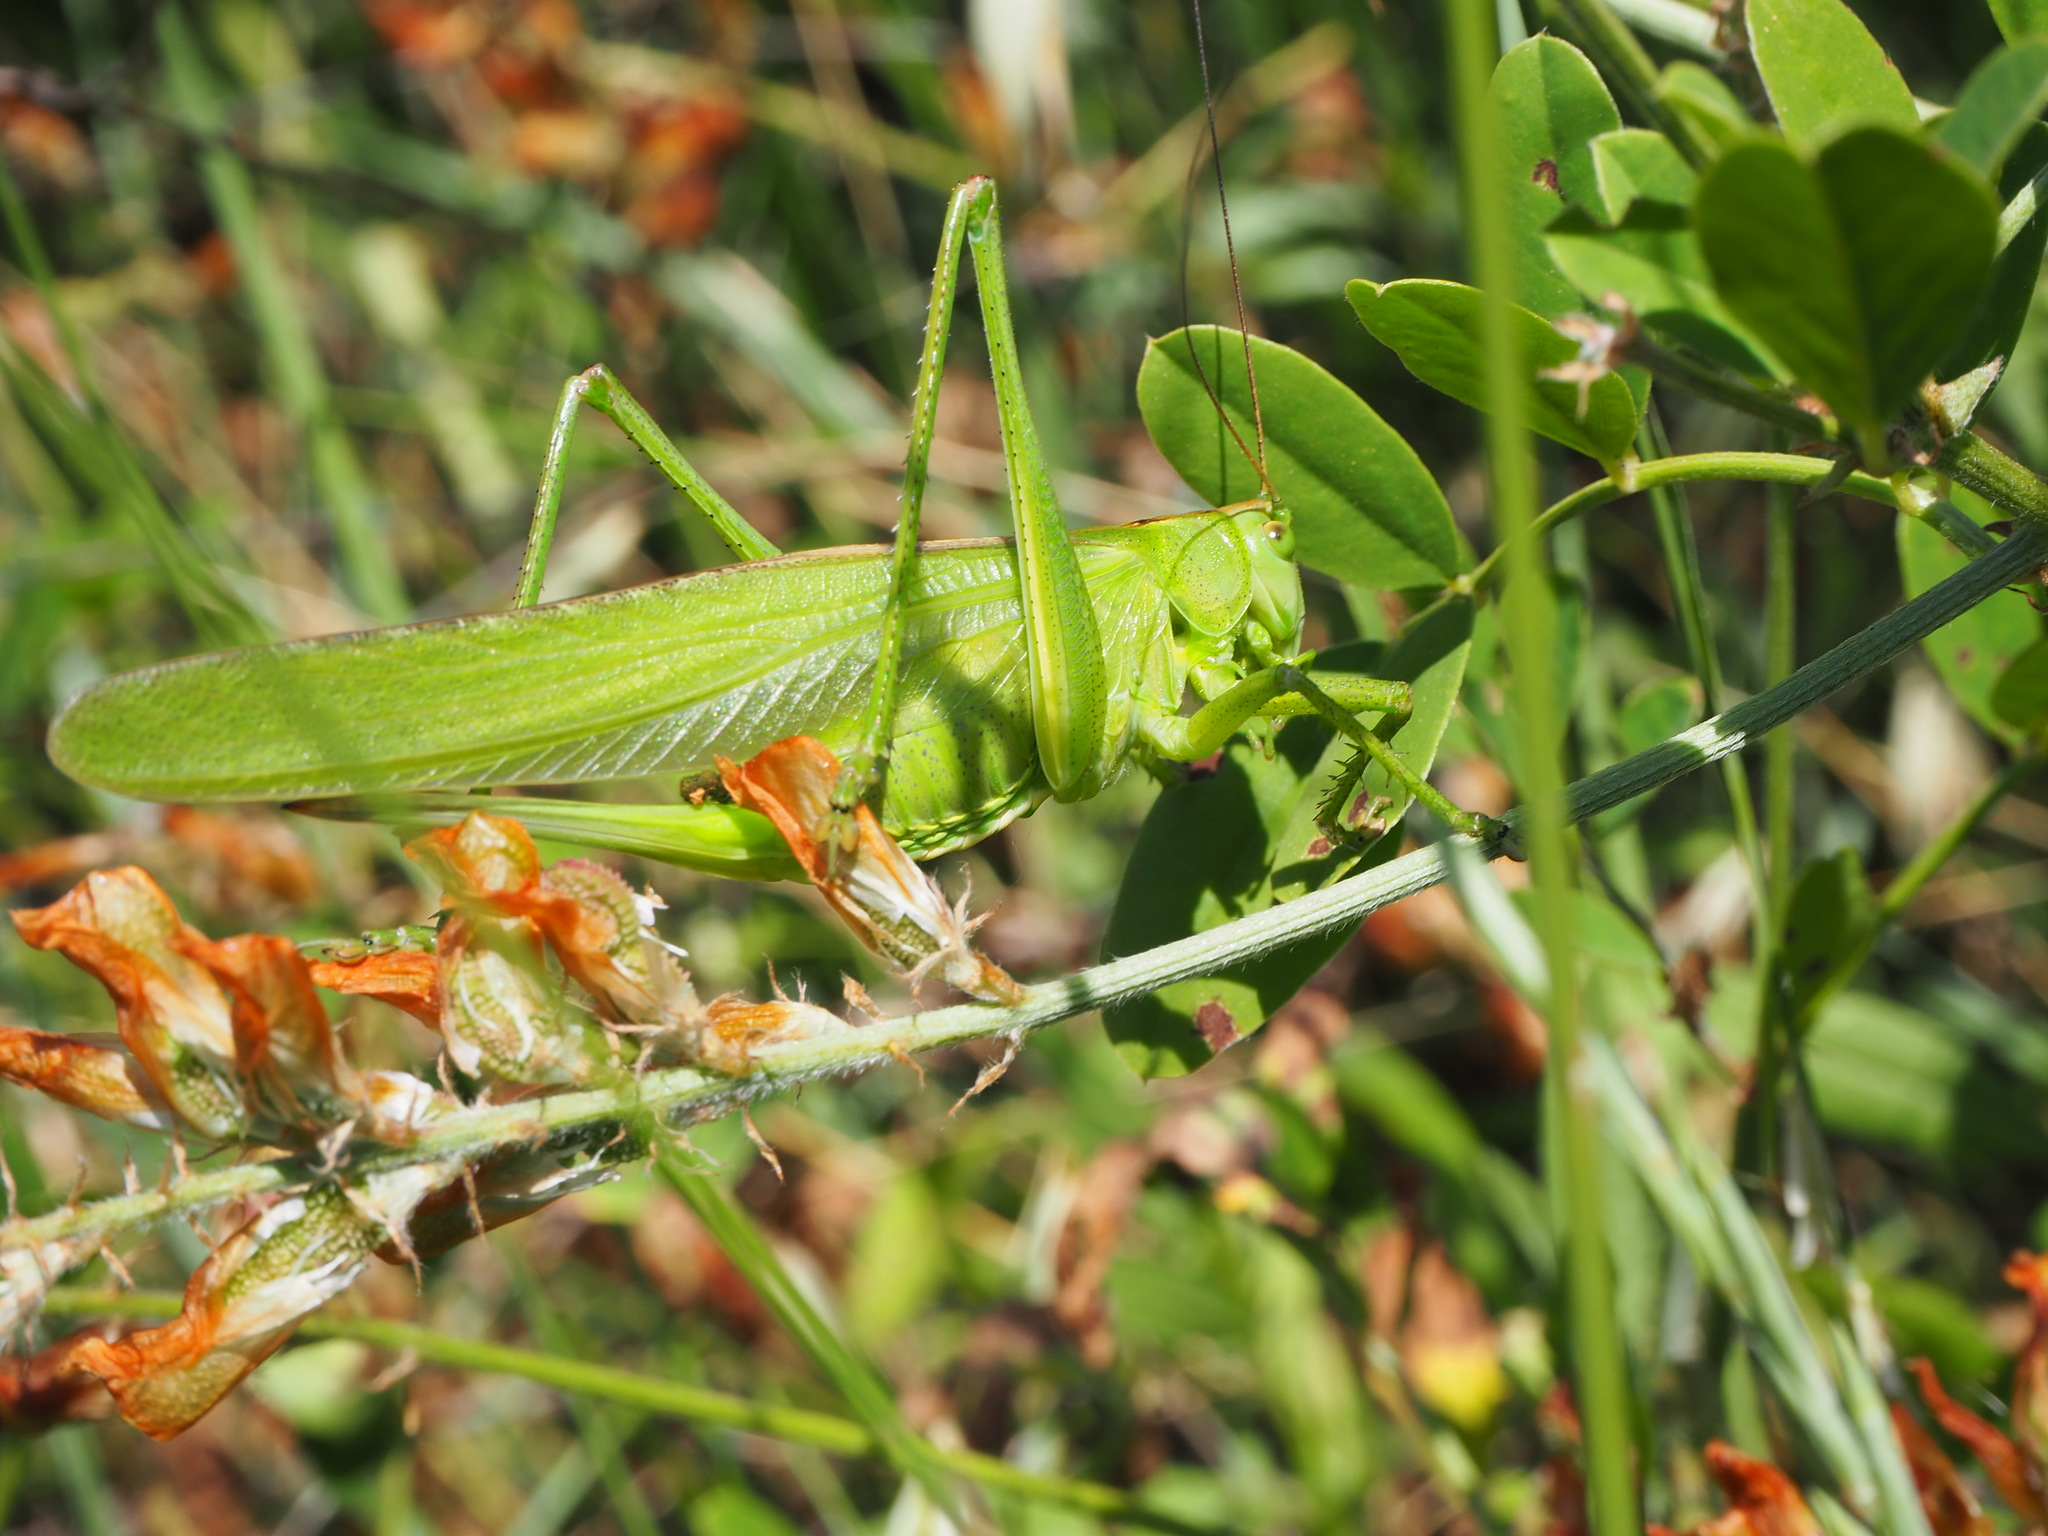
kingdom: Animalia
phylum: Arthropoda
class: Insecta
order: Orthoptera
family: Tettigoniidae
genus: Tettigonia
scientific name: Tettigonia viridissima
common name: Great green bush-cricket
